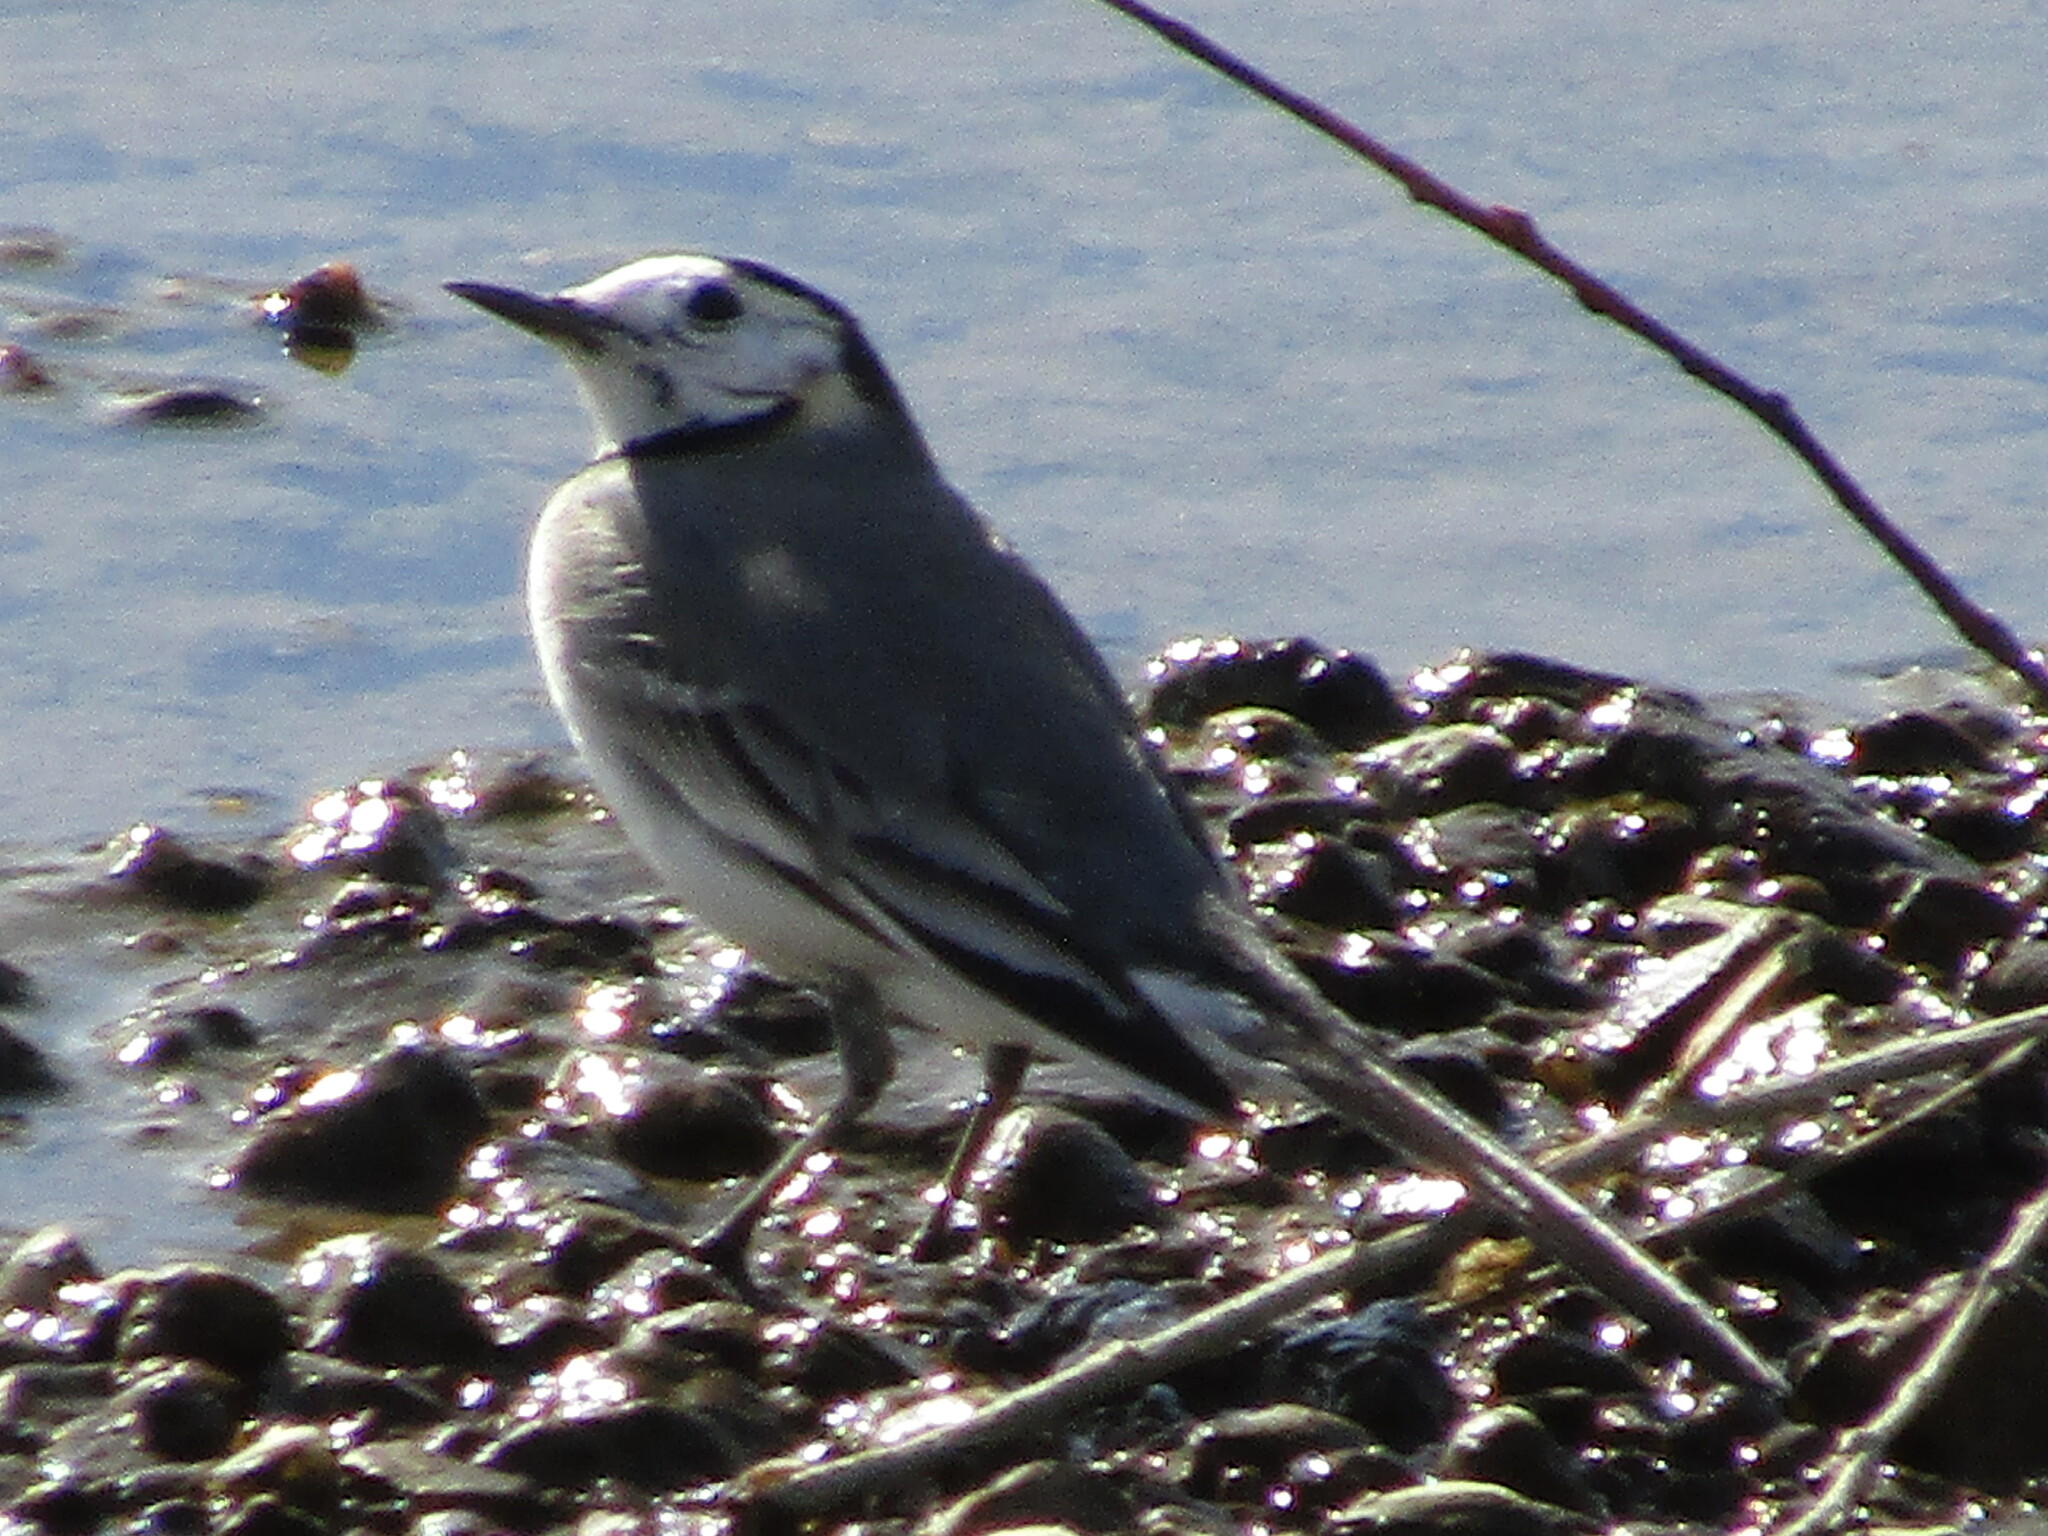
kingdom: Animalia
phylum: Chordata
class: Aves
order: Passeriformes
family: Motacillidae
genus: Motacilla
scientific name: Motacilla alba
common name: White wagtail
